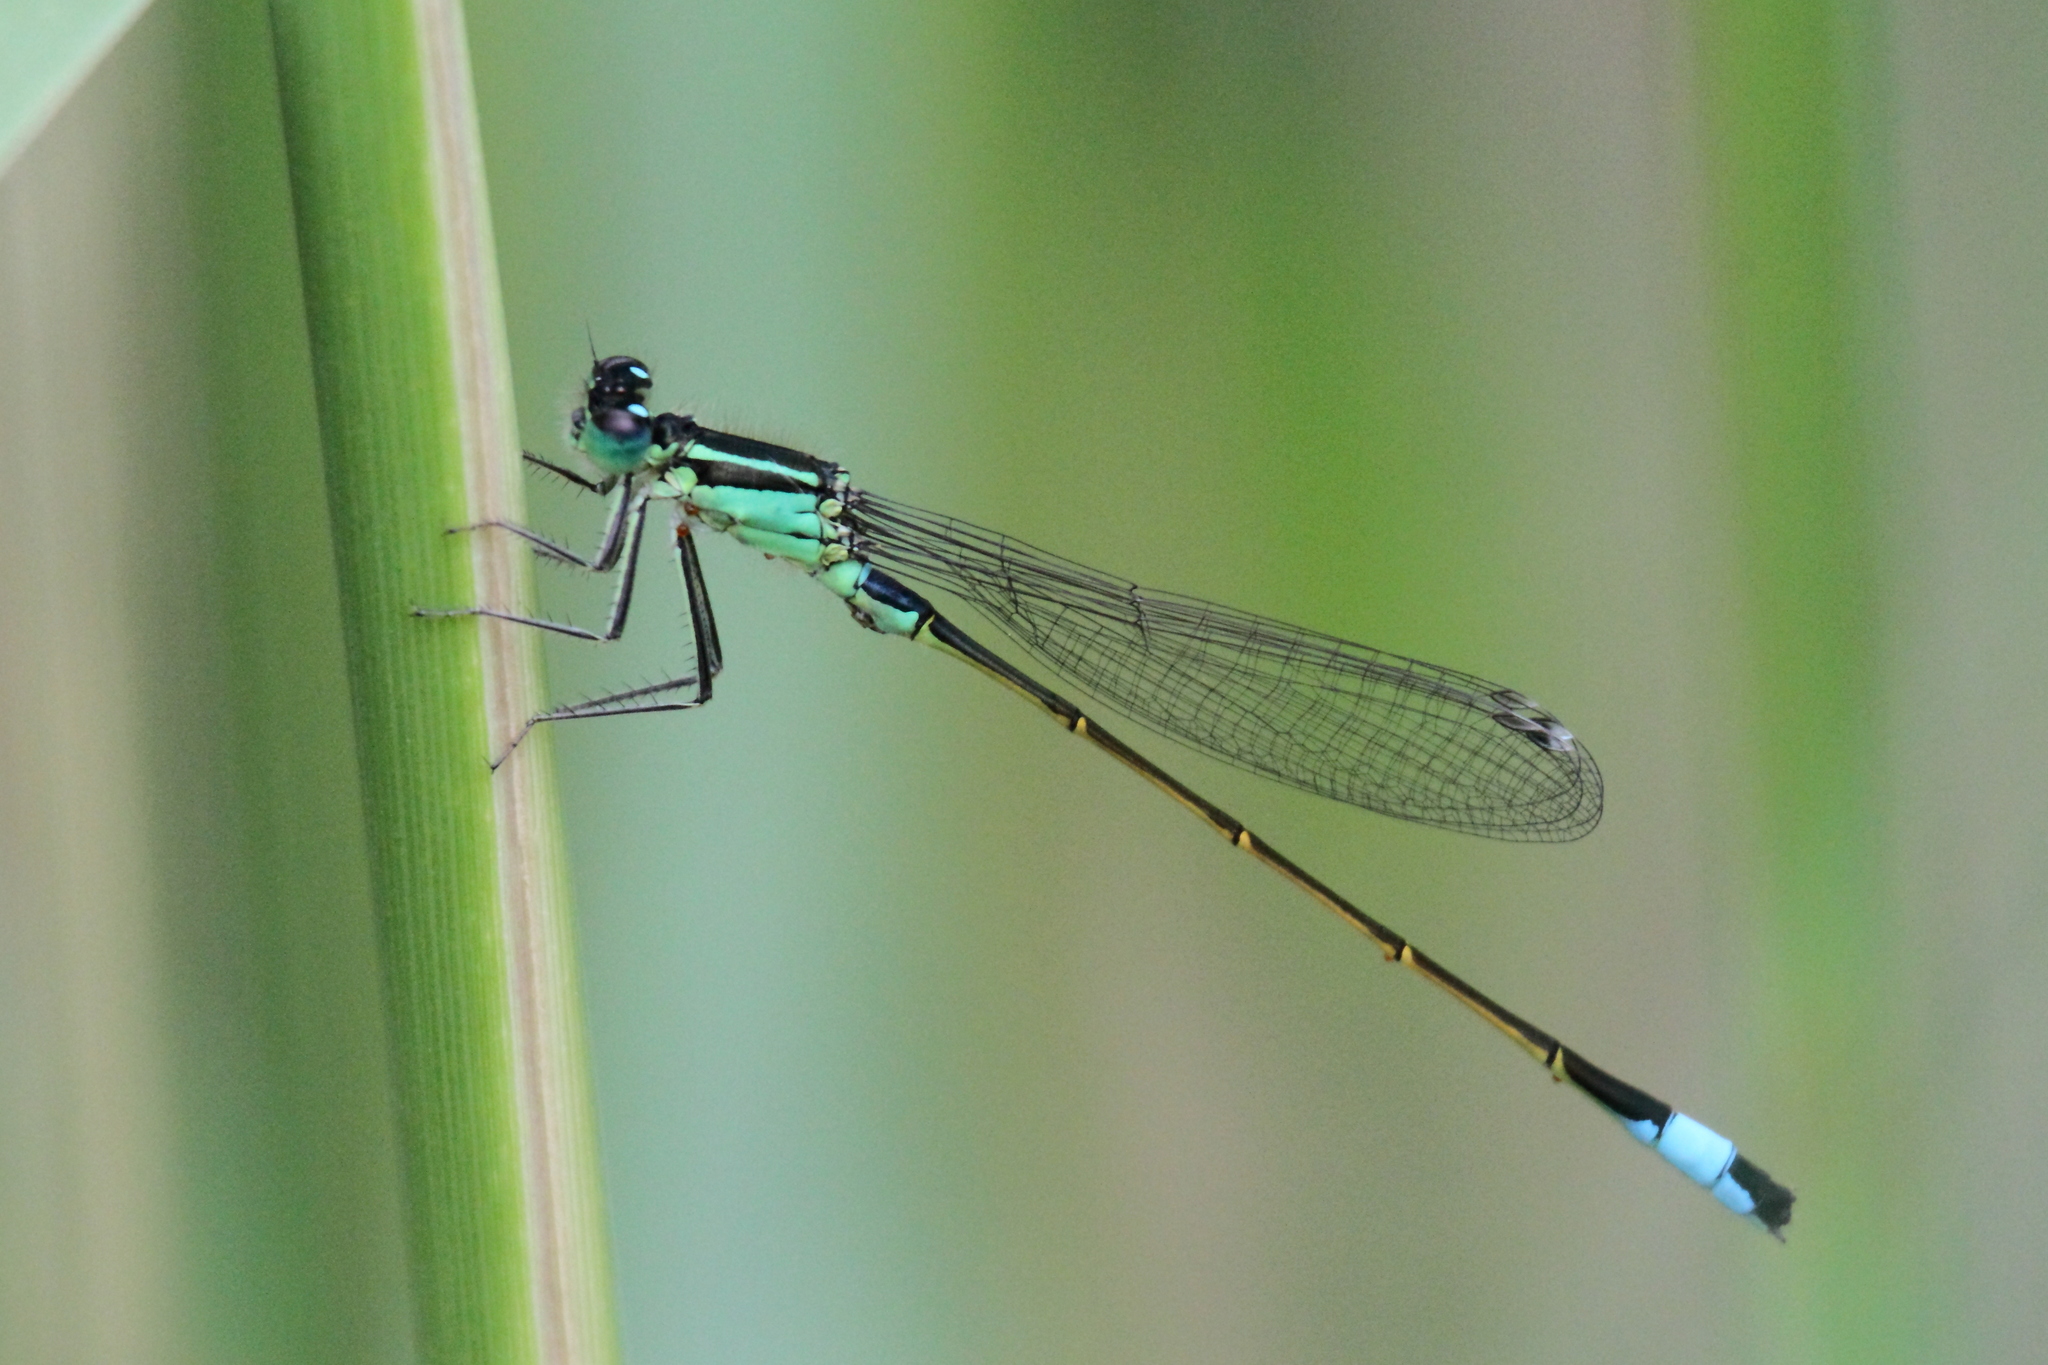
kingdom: Animalia
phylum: Arthropoda
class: Insecta
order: Odonata
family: Coenagrionidae
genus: Ischnura
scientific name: Ischnura elegans
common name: Blue-tailed damselfly
